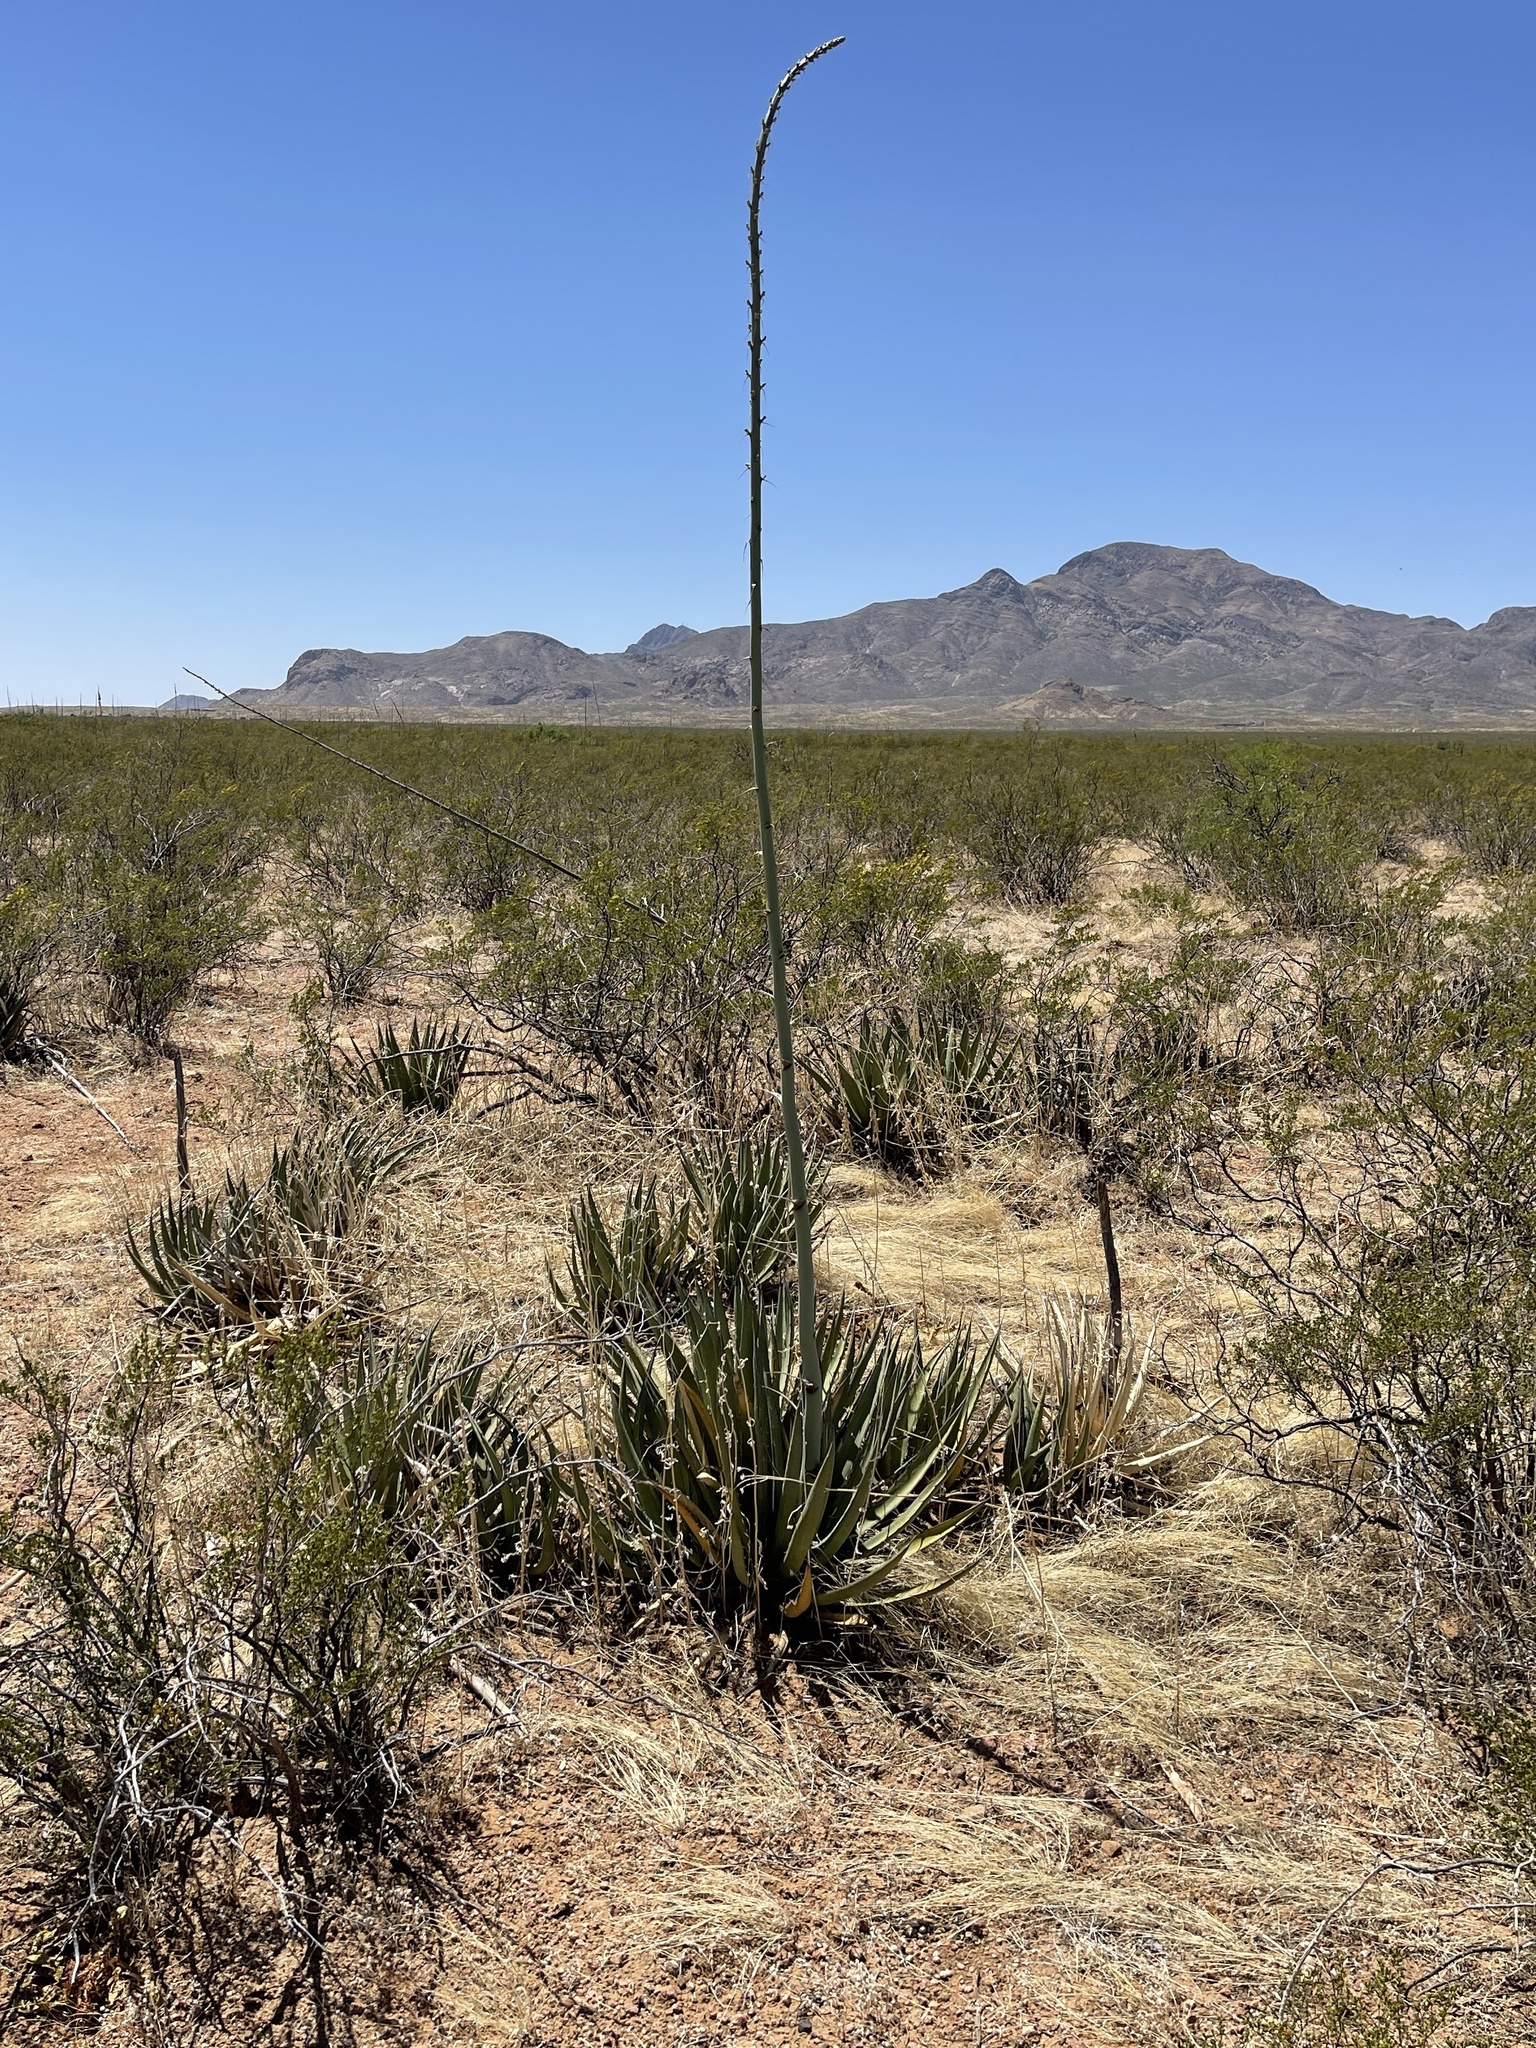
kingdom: Plantae
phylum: Tracheophyta
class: Liliopsida
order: Asparagales
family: Asparagaceae
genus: Agave
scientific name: Agave lechuguilla
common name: Lecheguilla agave
